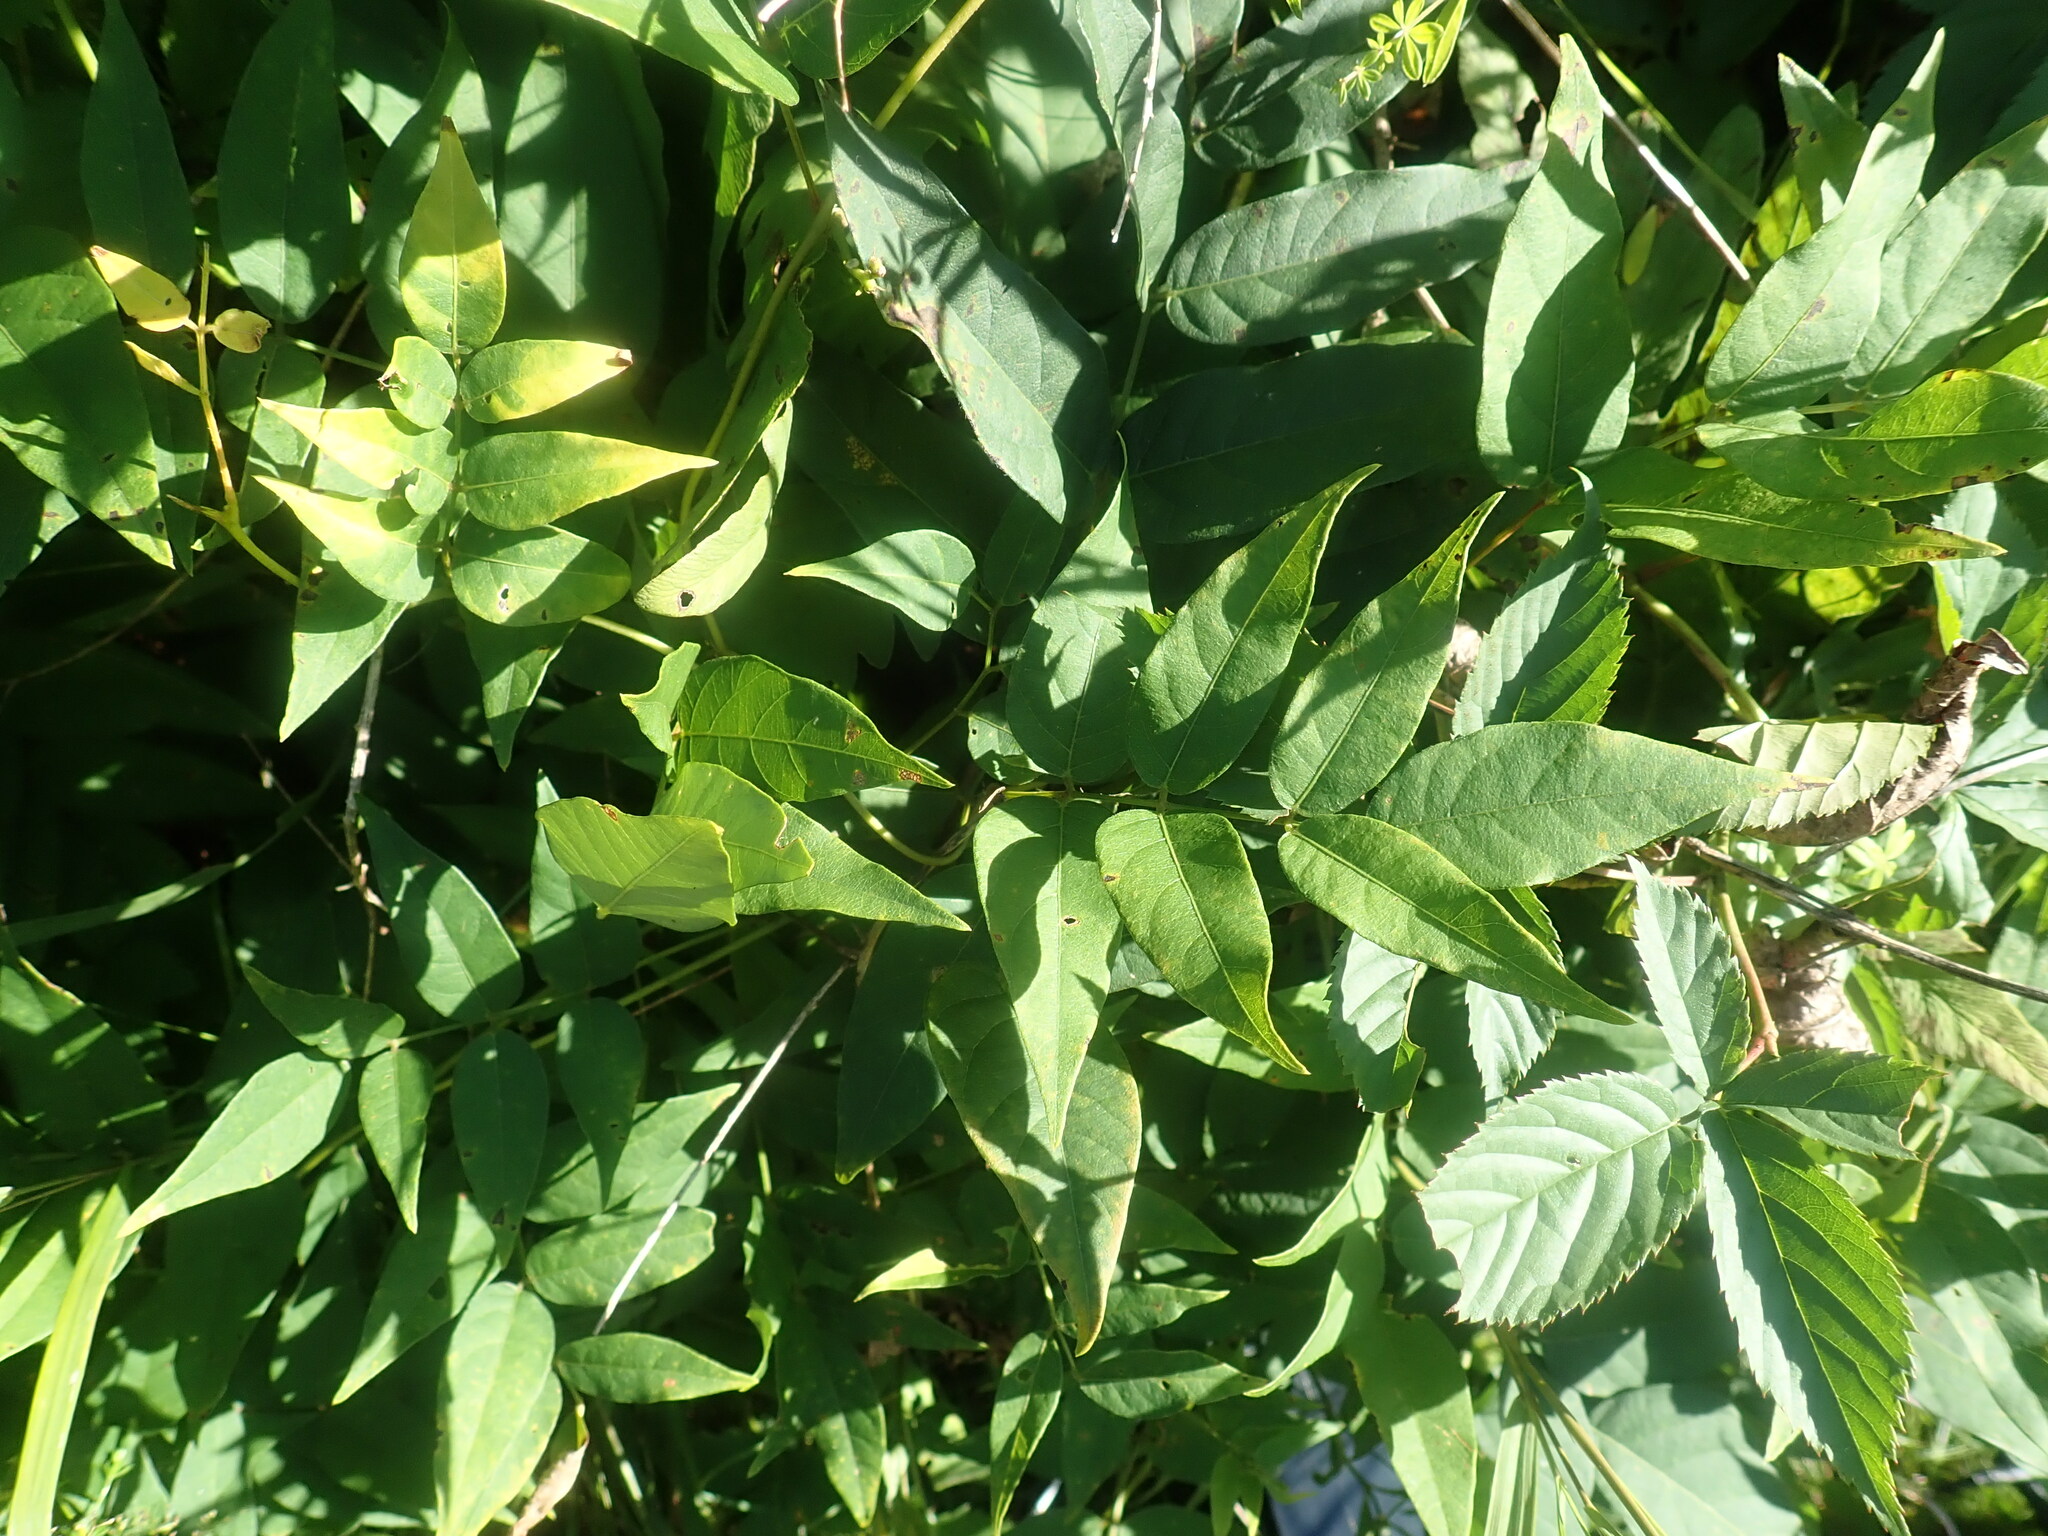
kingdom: Plantae
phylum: Tracheophyta
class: Magnoliopsida
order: Fabales
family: Fabaceae
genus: Apios
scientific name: Apios americana
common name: American potato-bean
